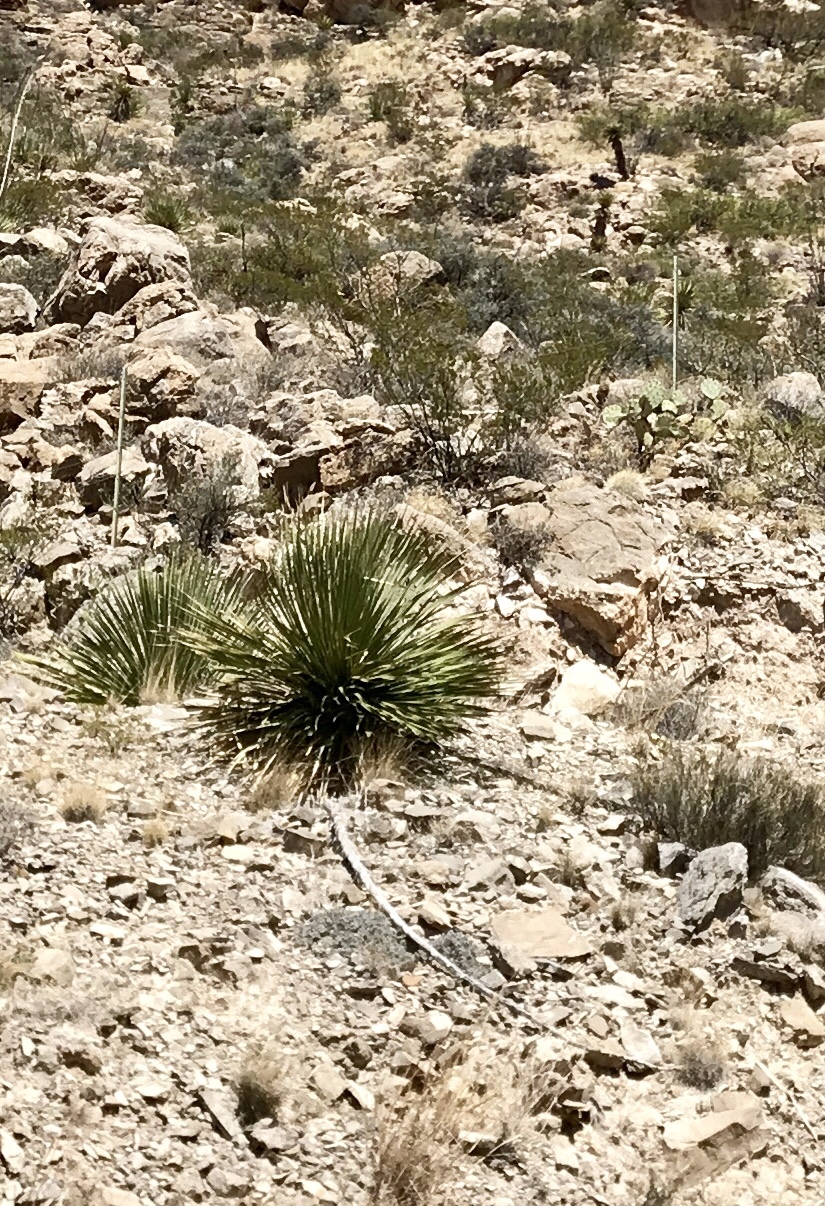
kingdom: Plantae
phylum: Tracheophyta
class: Liliopsida
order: Asparagales
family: Asparagaceae
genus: Dasylirion
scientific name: Dasylirion wheeleri
